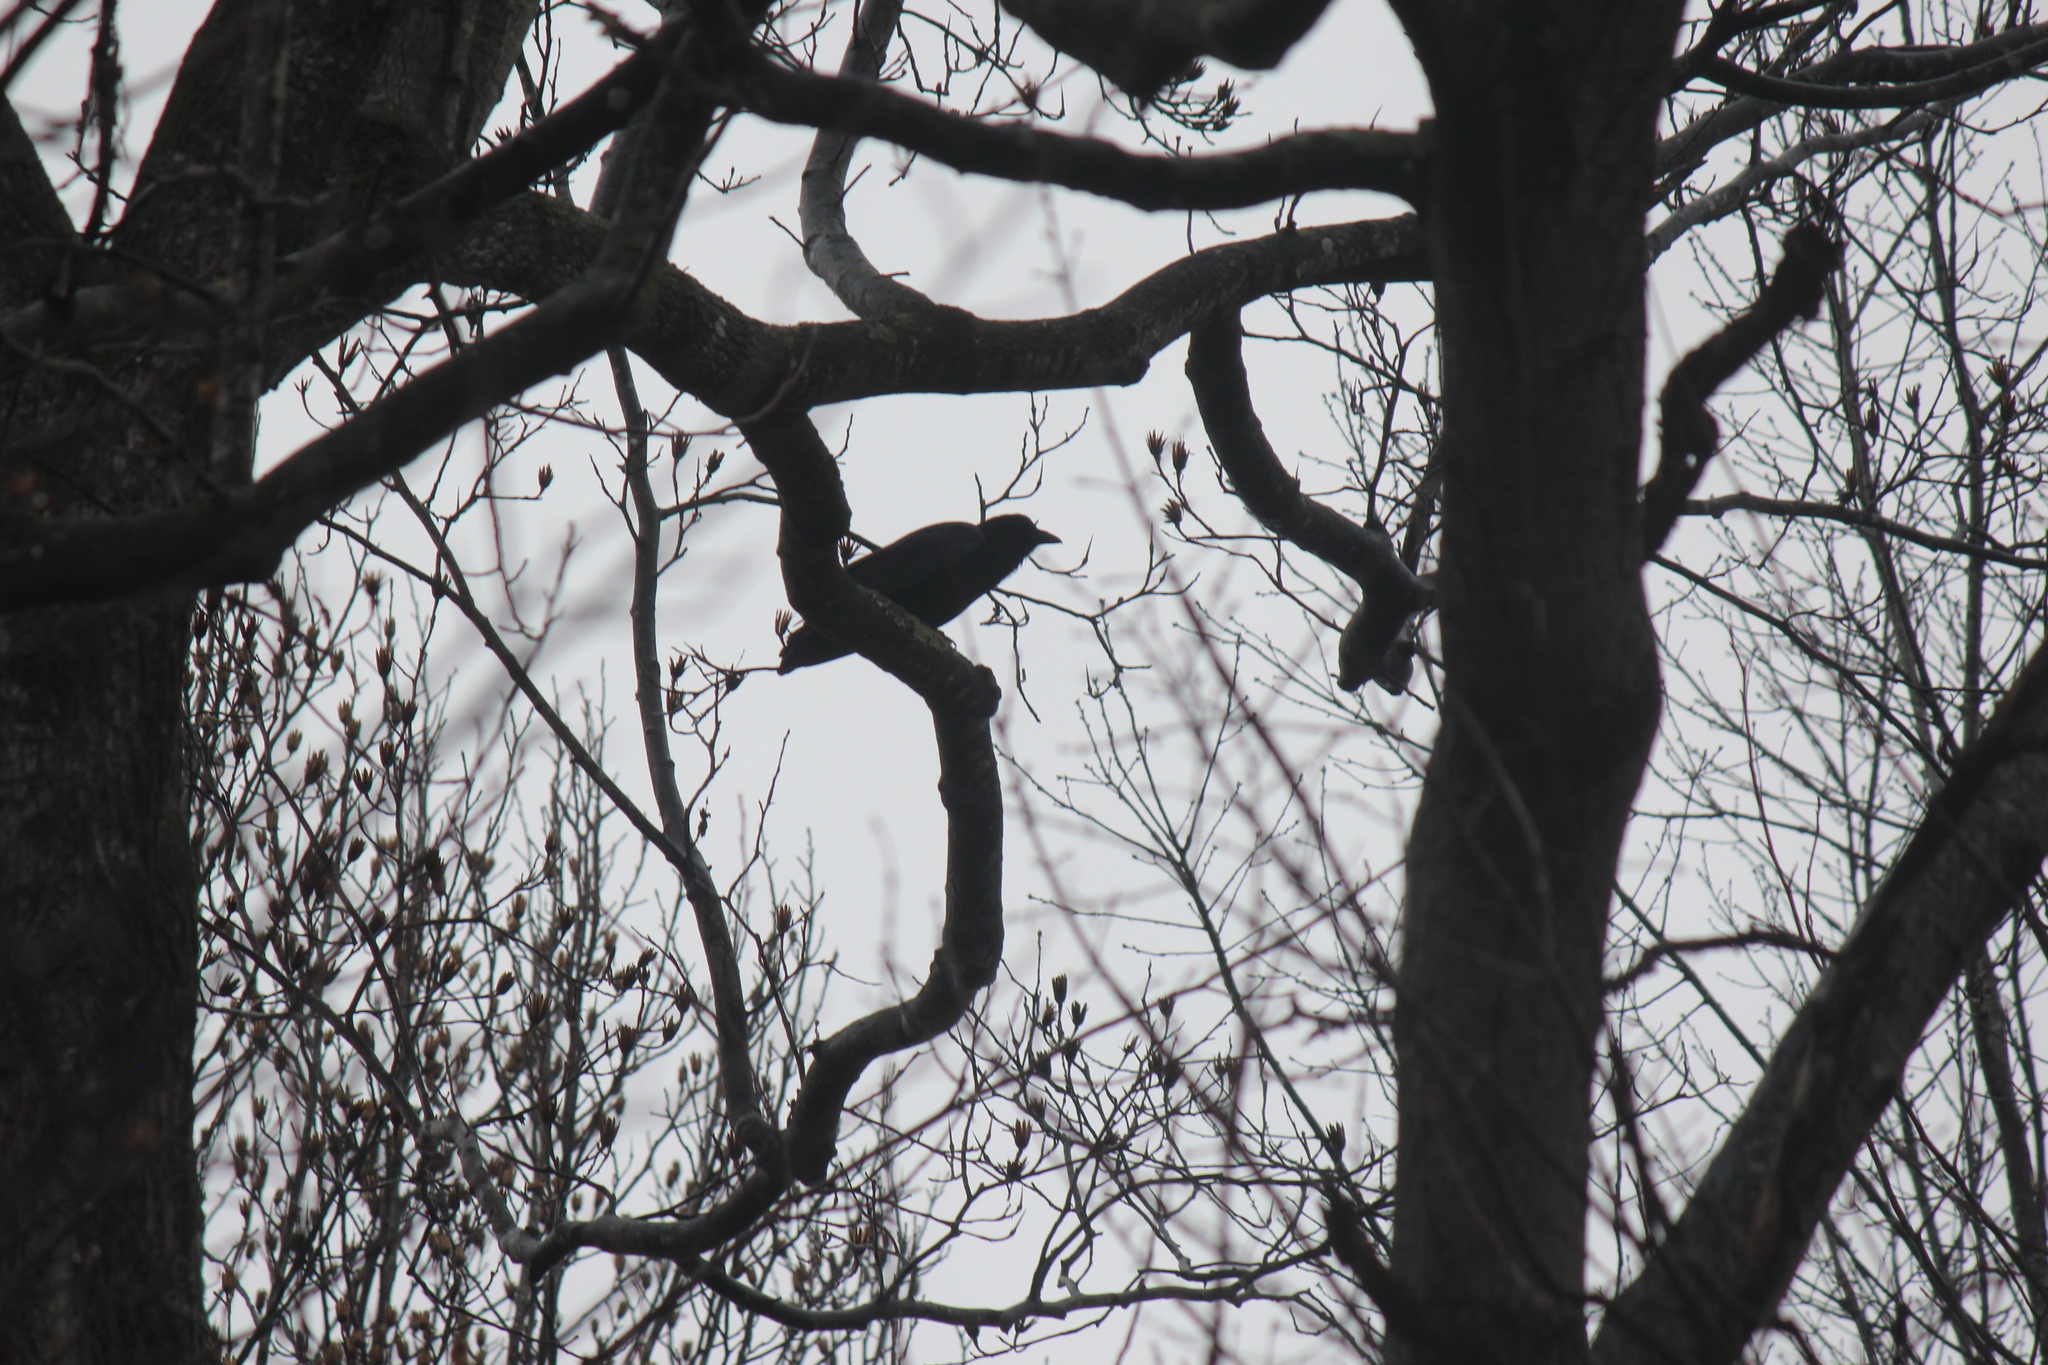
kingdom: Animalia
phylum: Chordata
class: Aves
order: Passeriformes
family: Corvidae
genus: Corvus
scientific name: Corvus brachyrhynchos
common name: American crow
